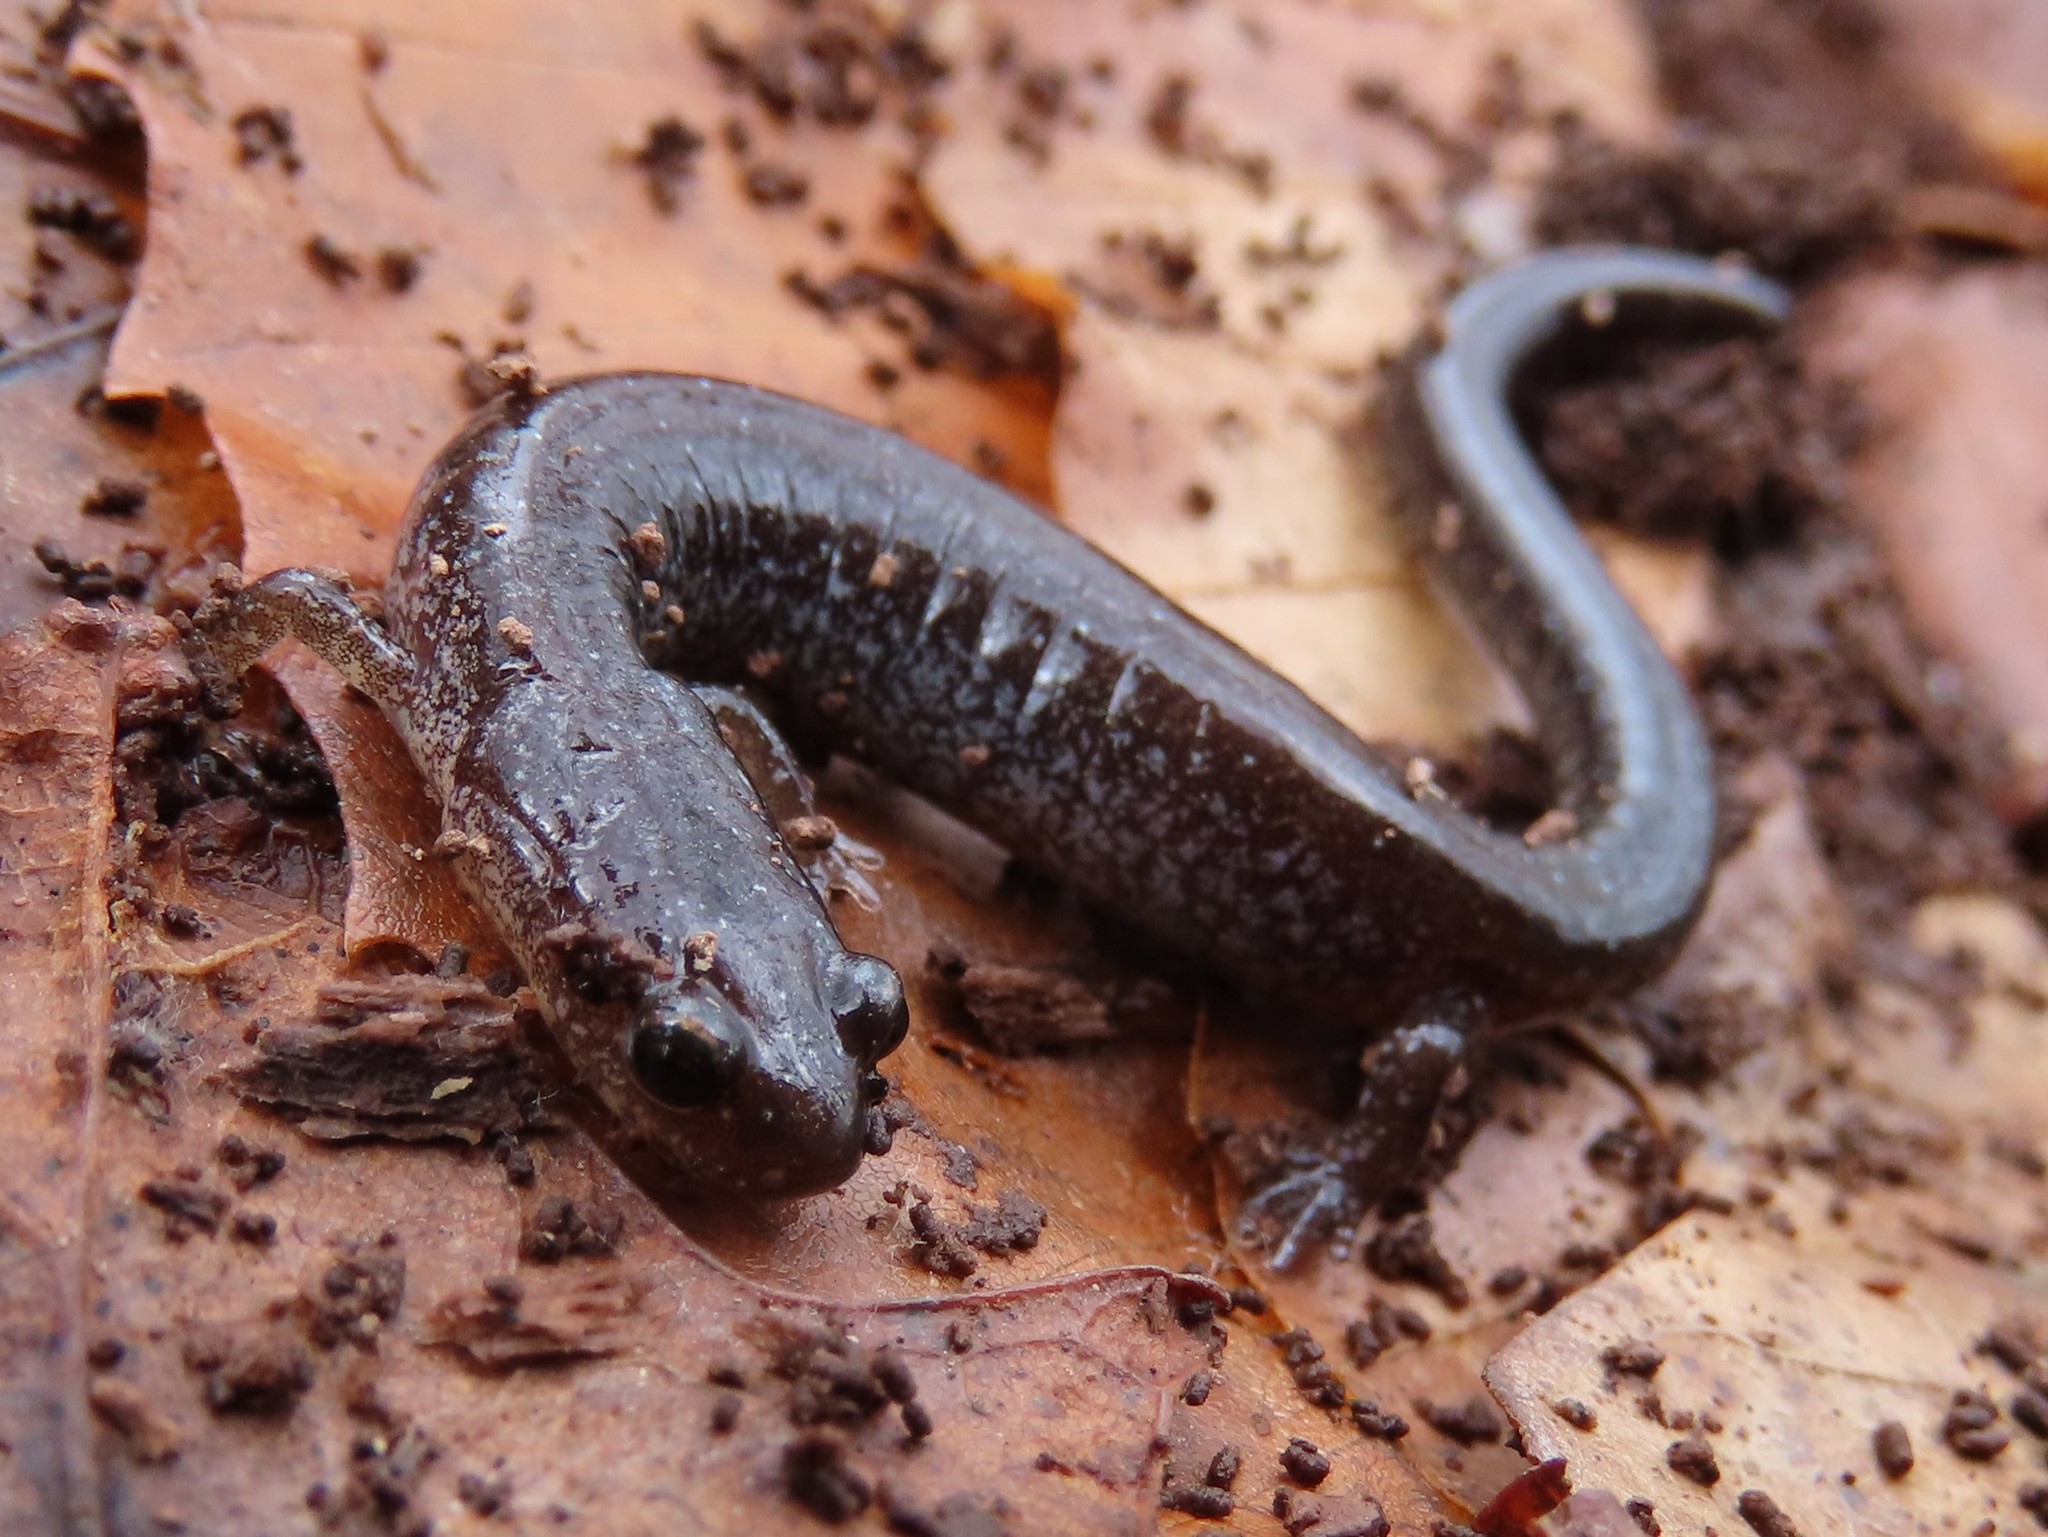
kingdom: Animalia
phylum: Chordata
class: Amphibia
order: Caudata
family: Plethodontidae
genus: Plethodon
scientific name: Plethodon cinereus
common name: Redback salamander
